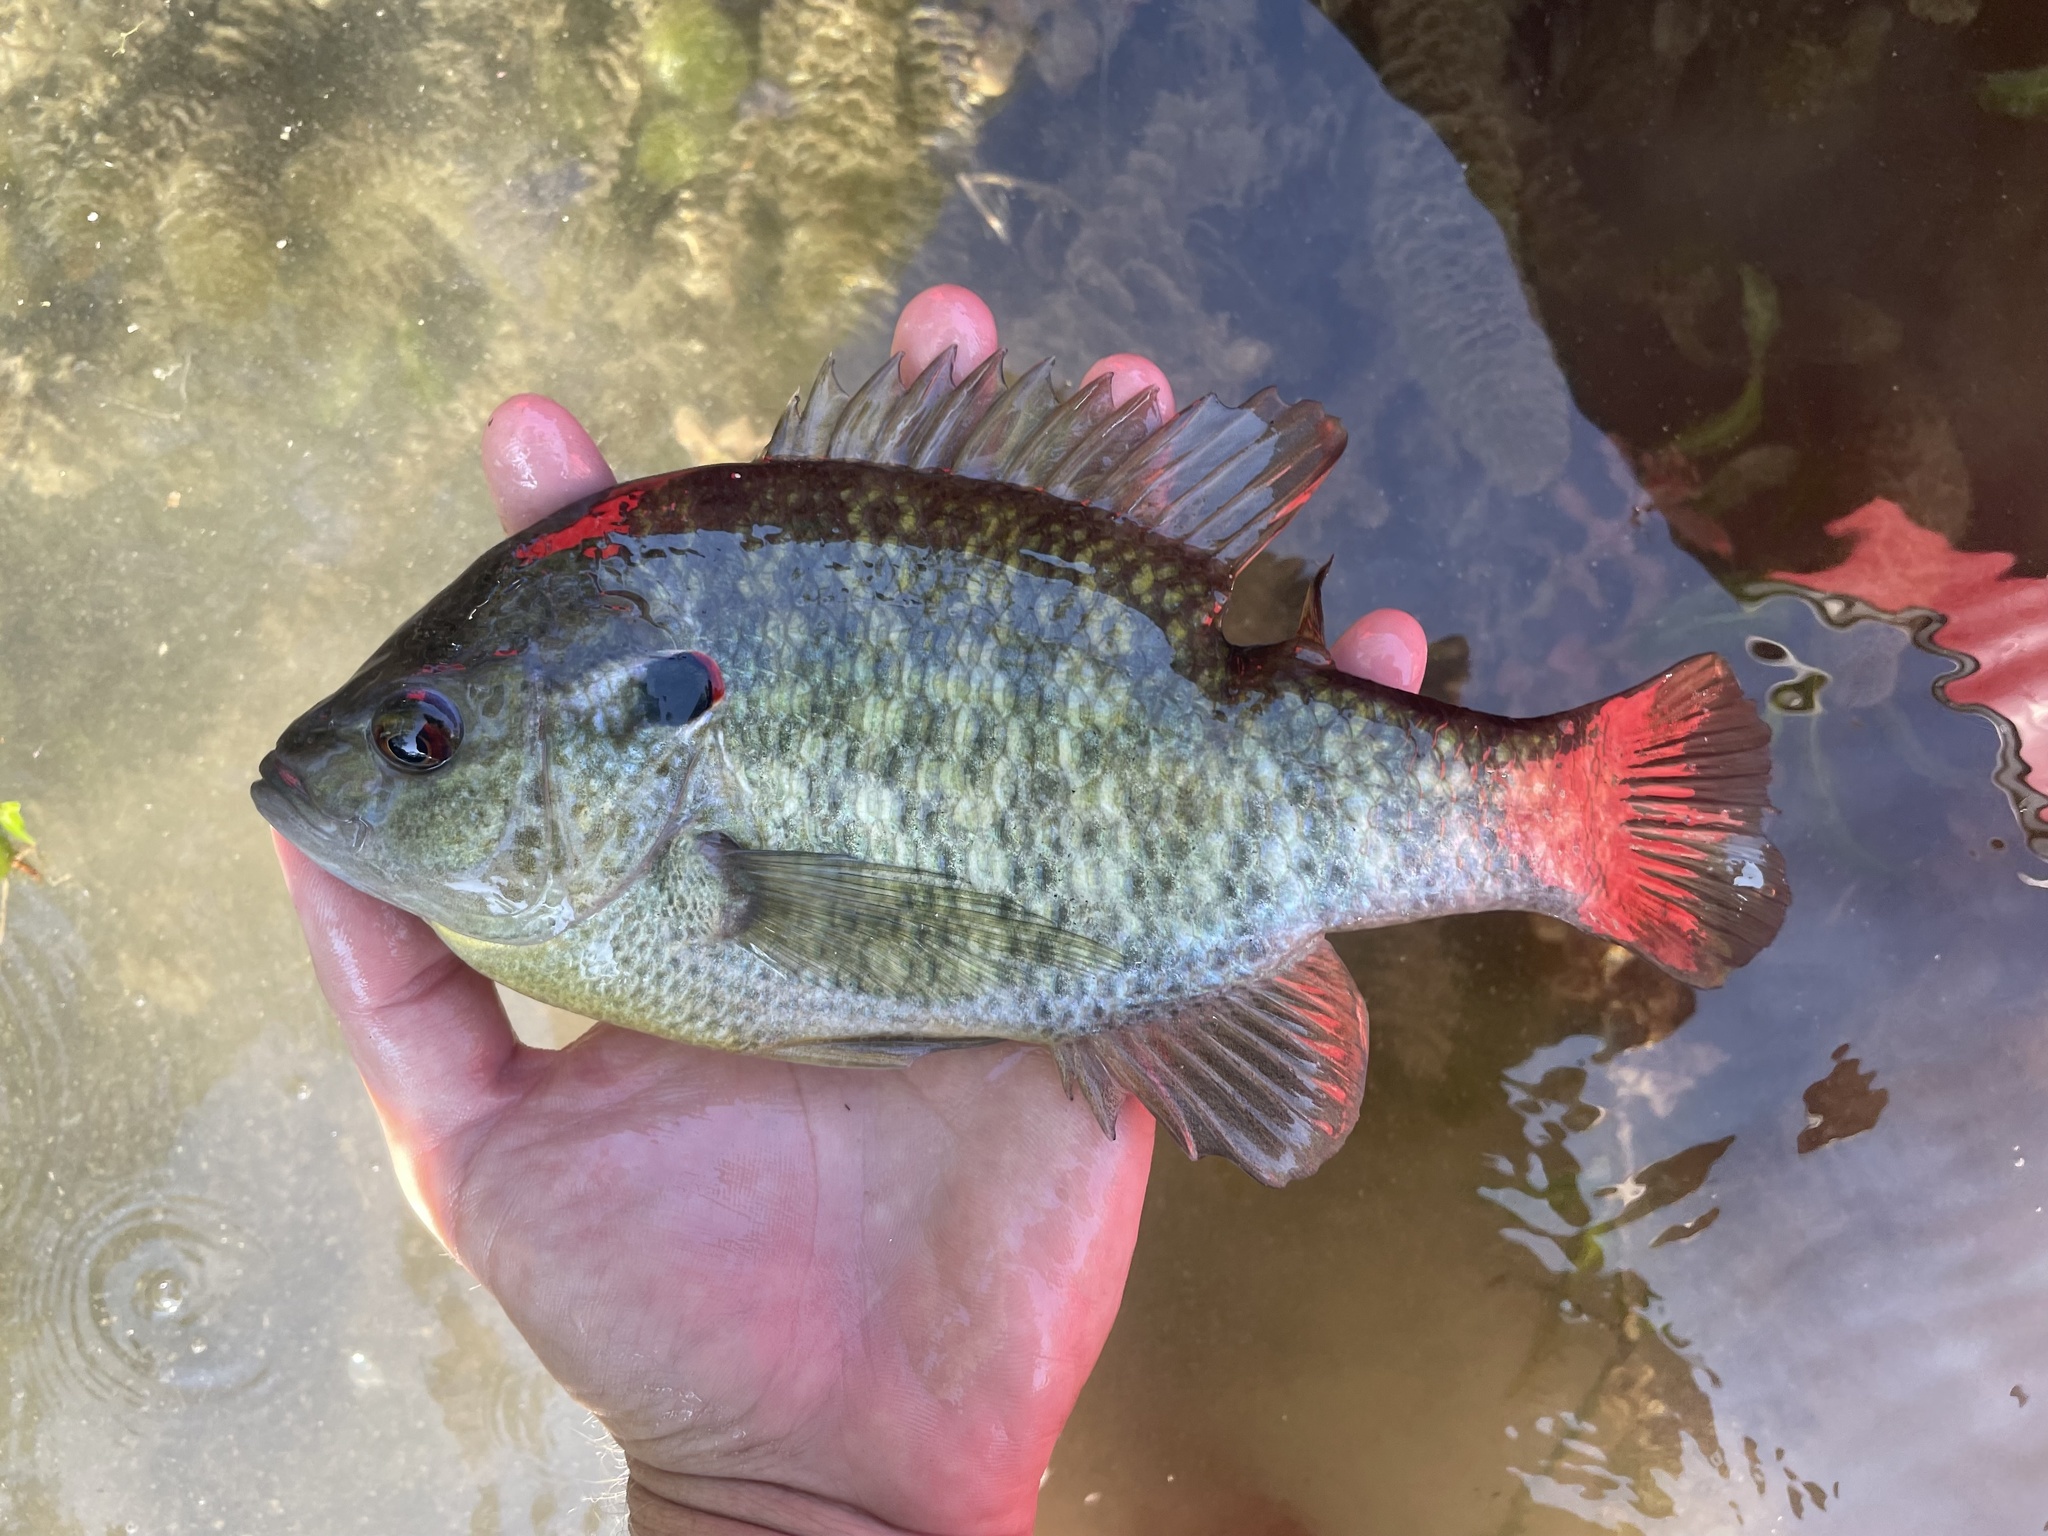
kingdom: Animalia
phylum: Chordata
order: Perciformes
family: Centrarchidae
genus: Lepomis
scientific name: Lepomis microlophus
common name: Redear sunfish
